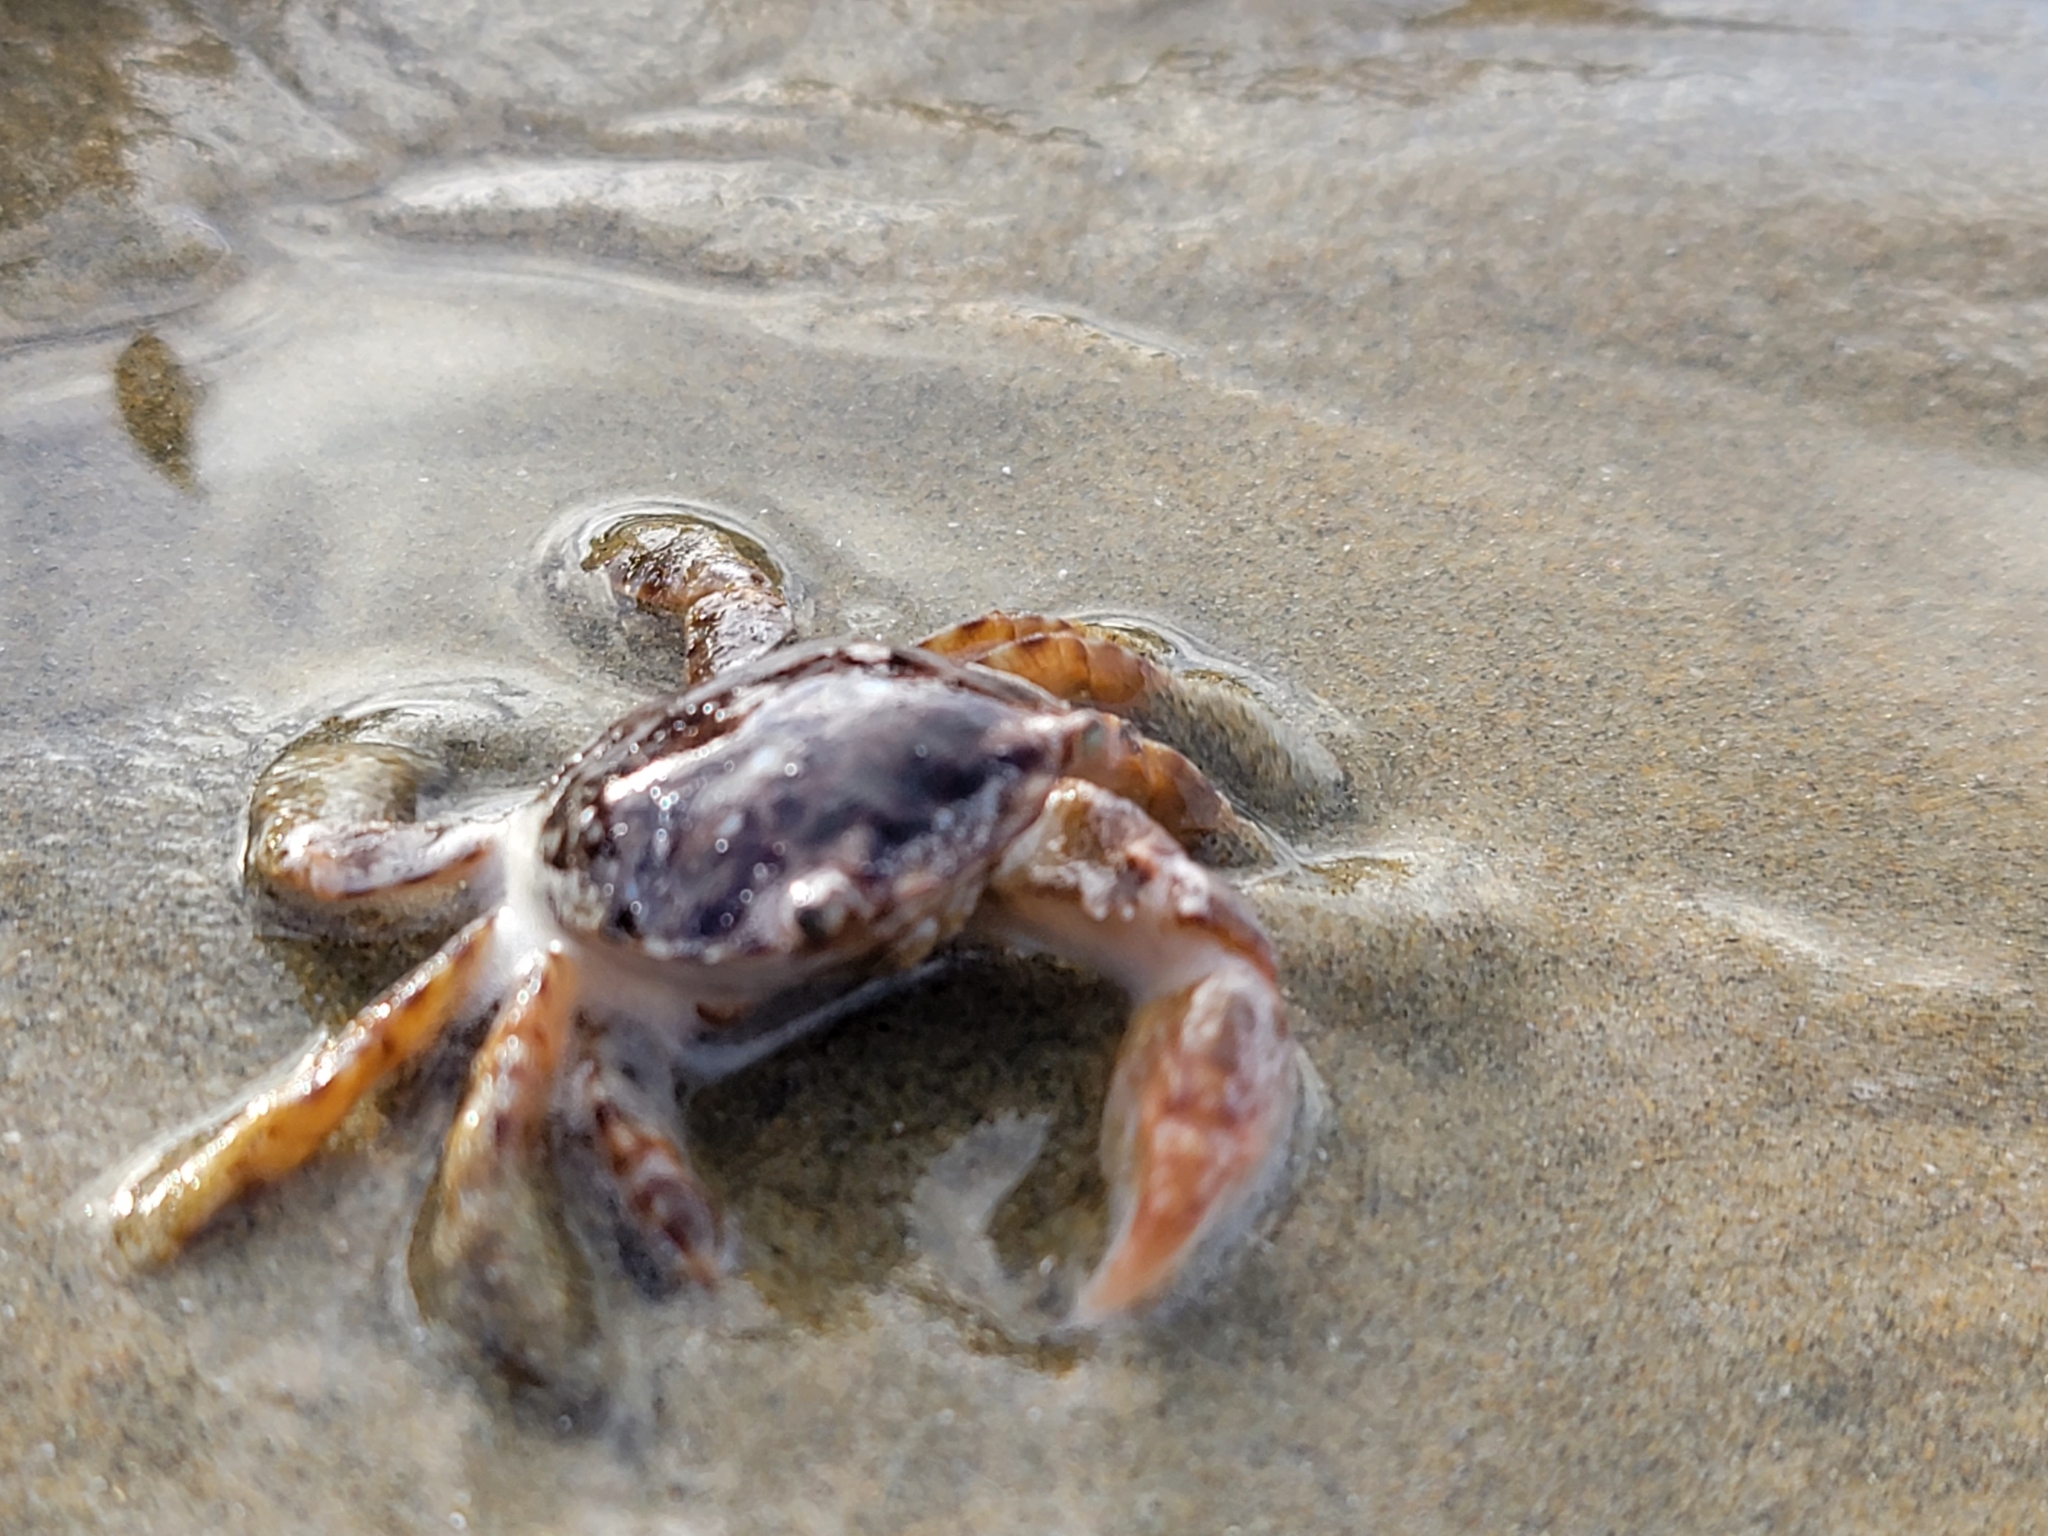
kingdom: Animalia
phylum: Arthropoda
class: Malacostraca
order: Decapoda
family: Grapsidae
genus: Planes
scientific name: Planes minutus
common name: Gulf weed crab
